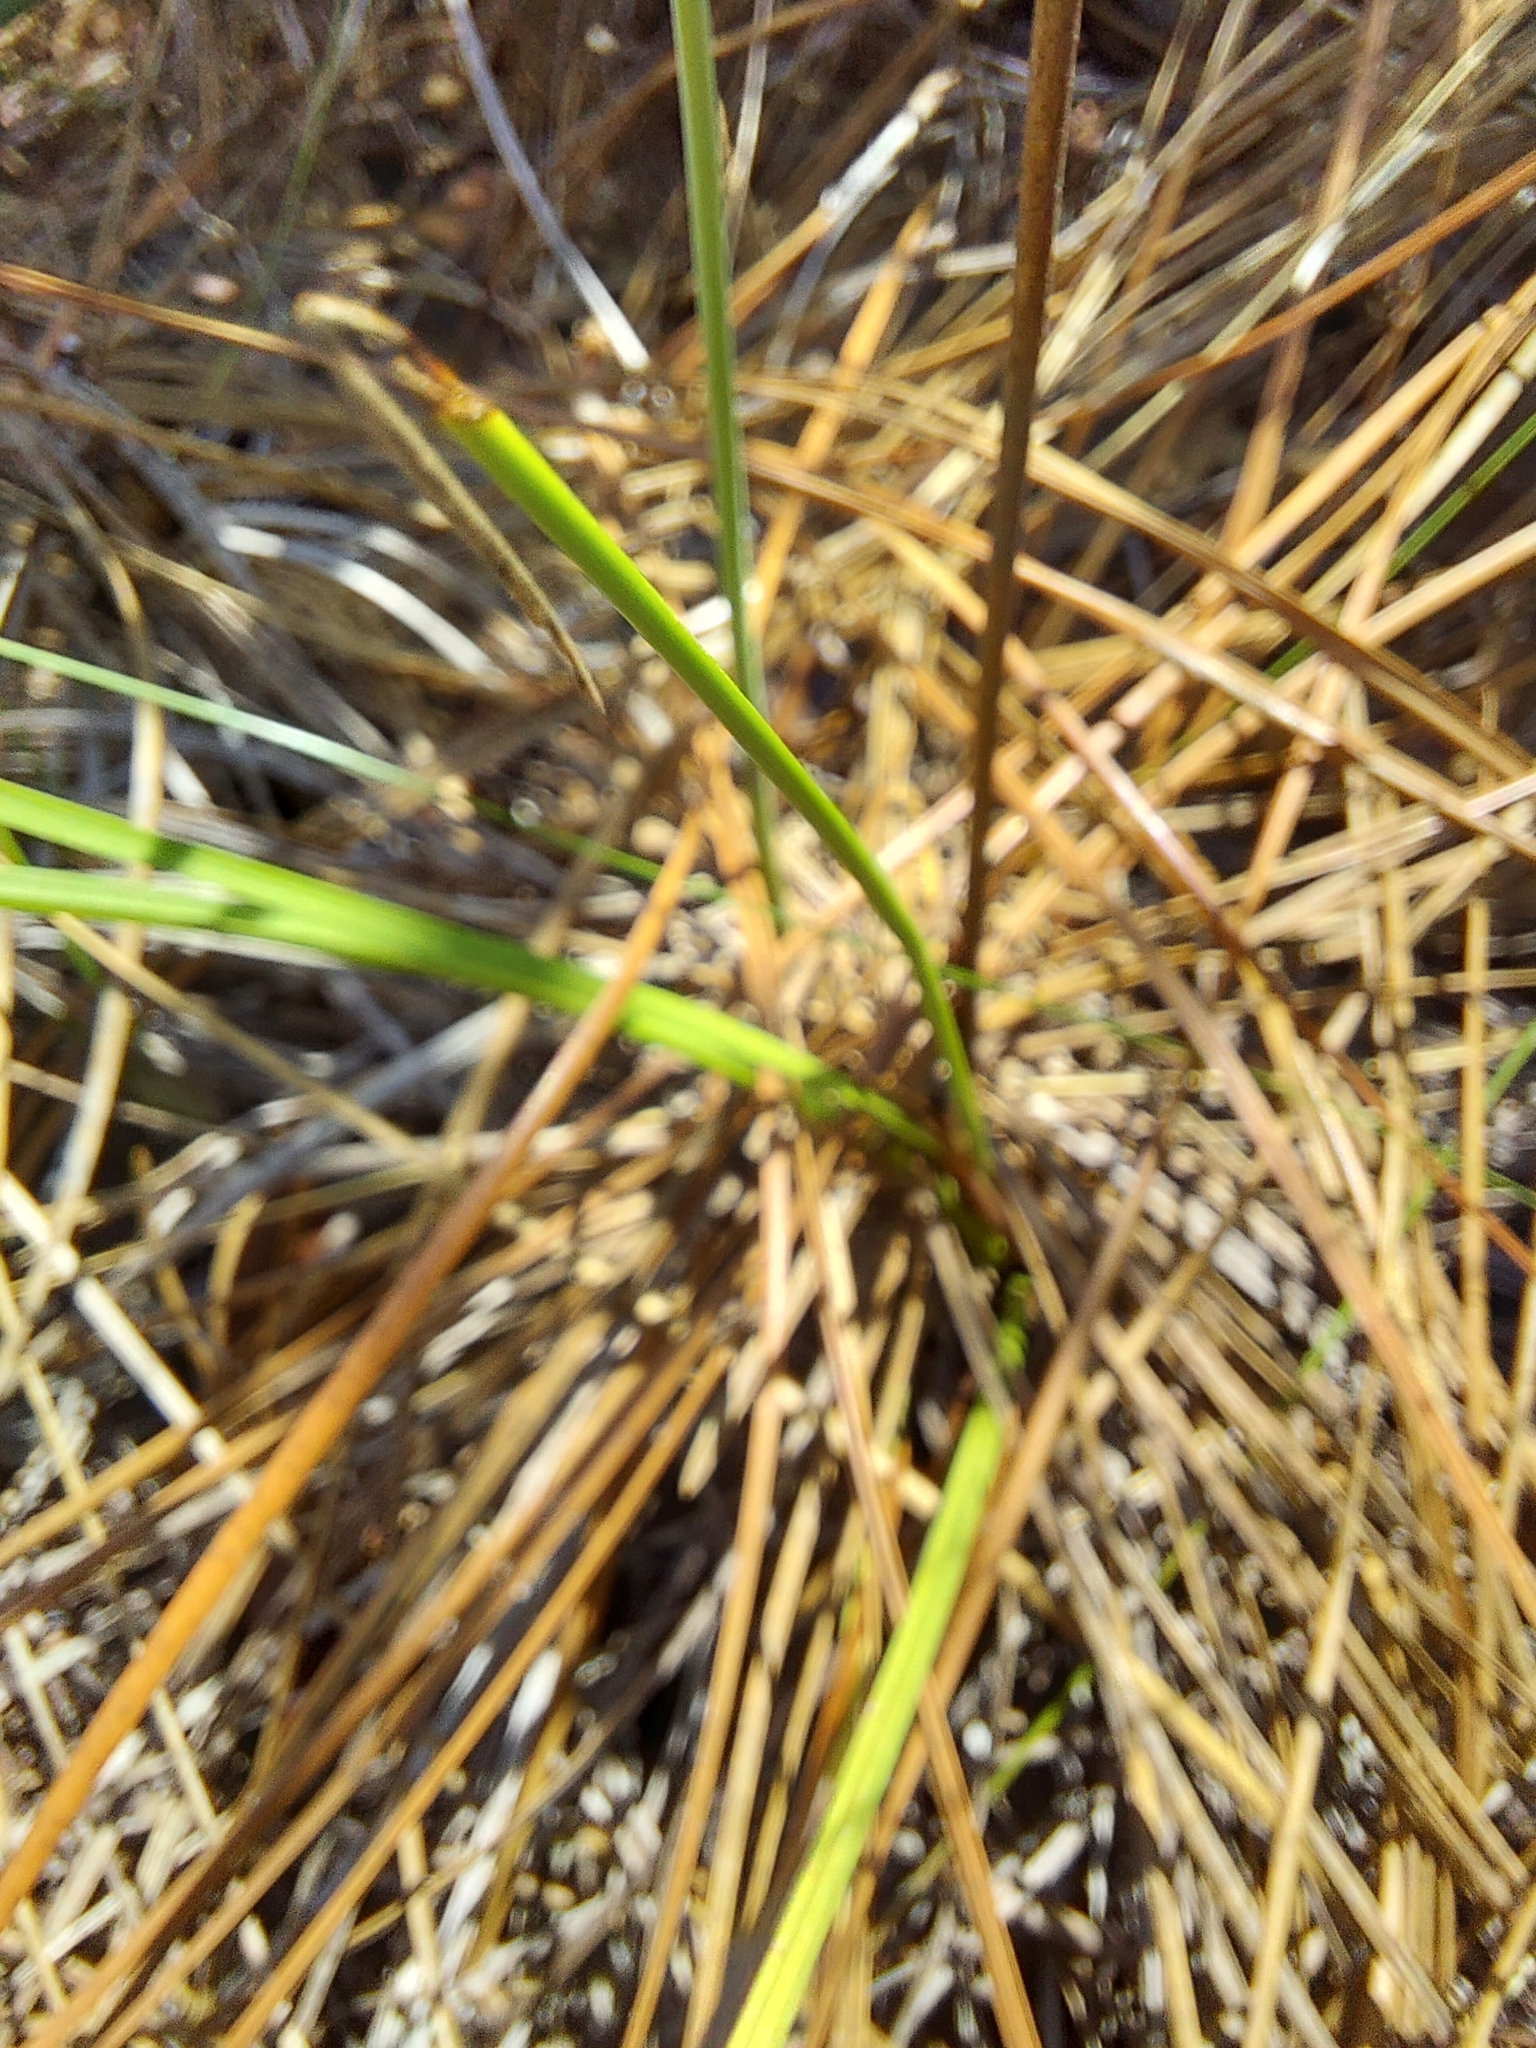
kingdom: Plantae
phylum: Tracheophyta
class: Liliopsida
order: Liliales
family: Melanthiaceae
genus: Schoenocaulon
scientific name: Schoenocaulon dubium
